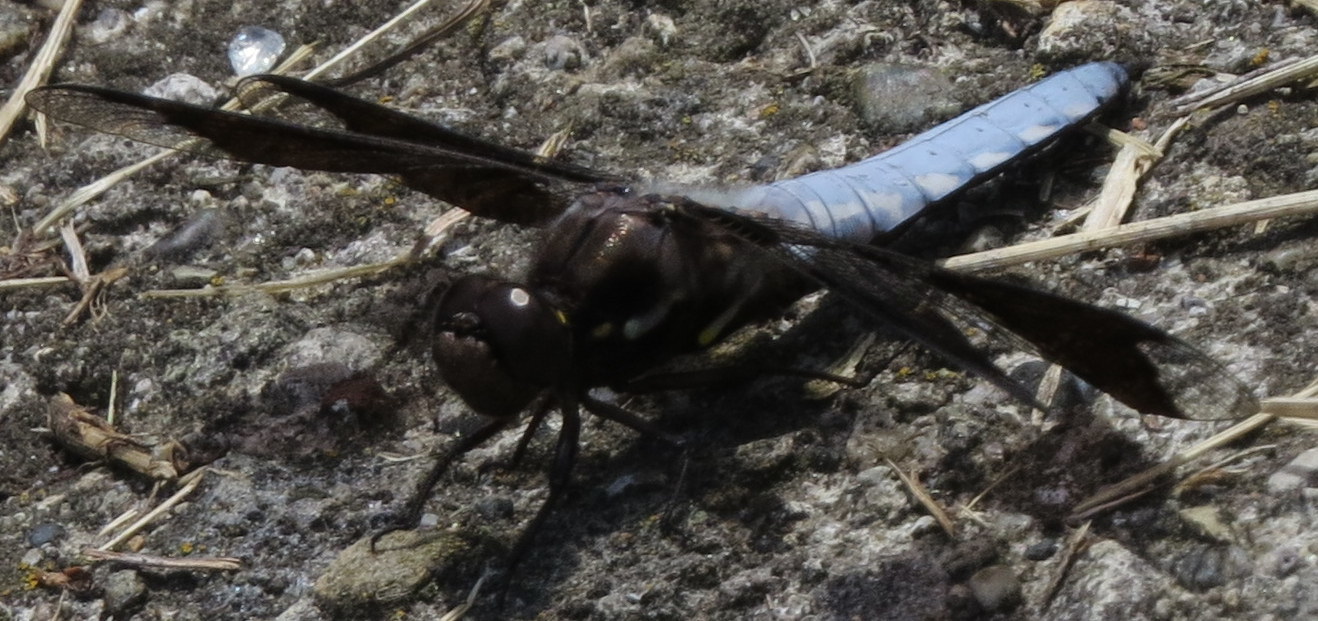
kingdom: Animalia
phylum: Arthropoda
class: Insecta
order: Odonata
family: Libellulidae
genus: Plathemis
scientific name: Plathemis lydia
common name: Common whitetail
